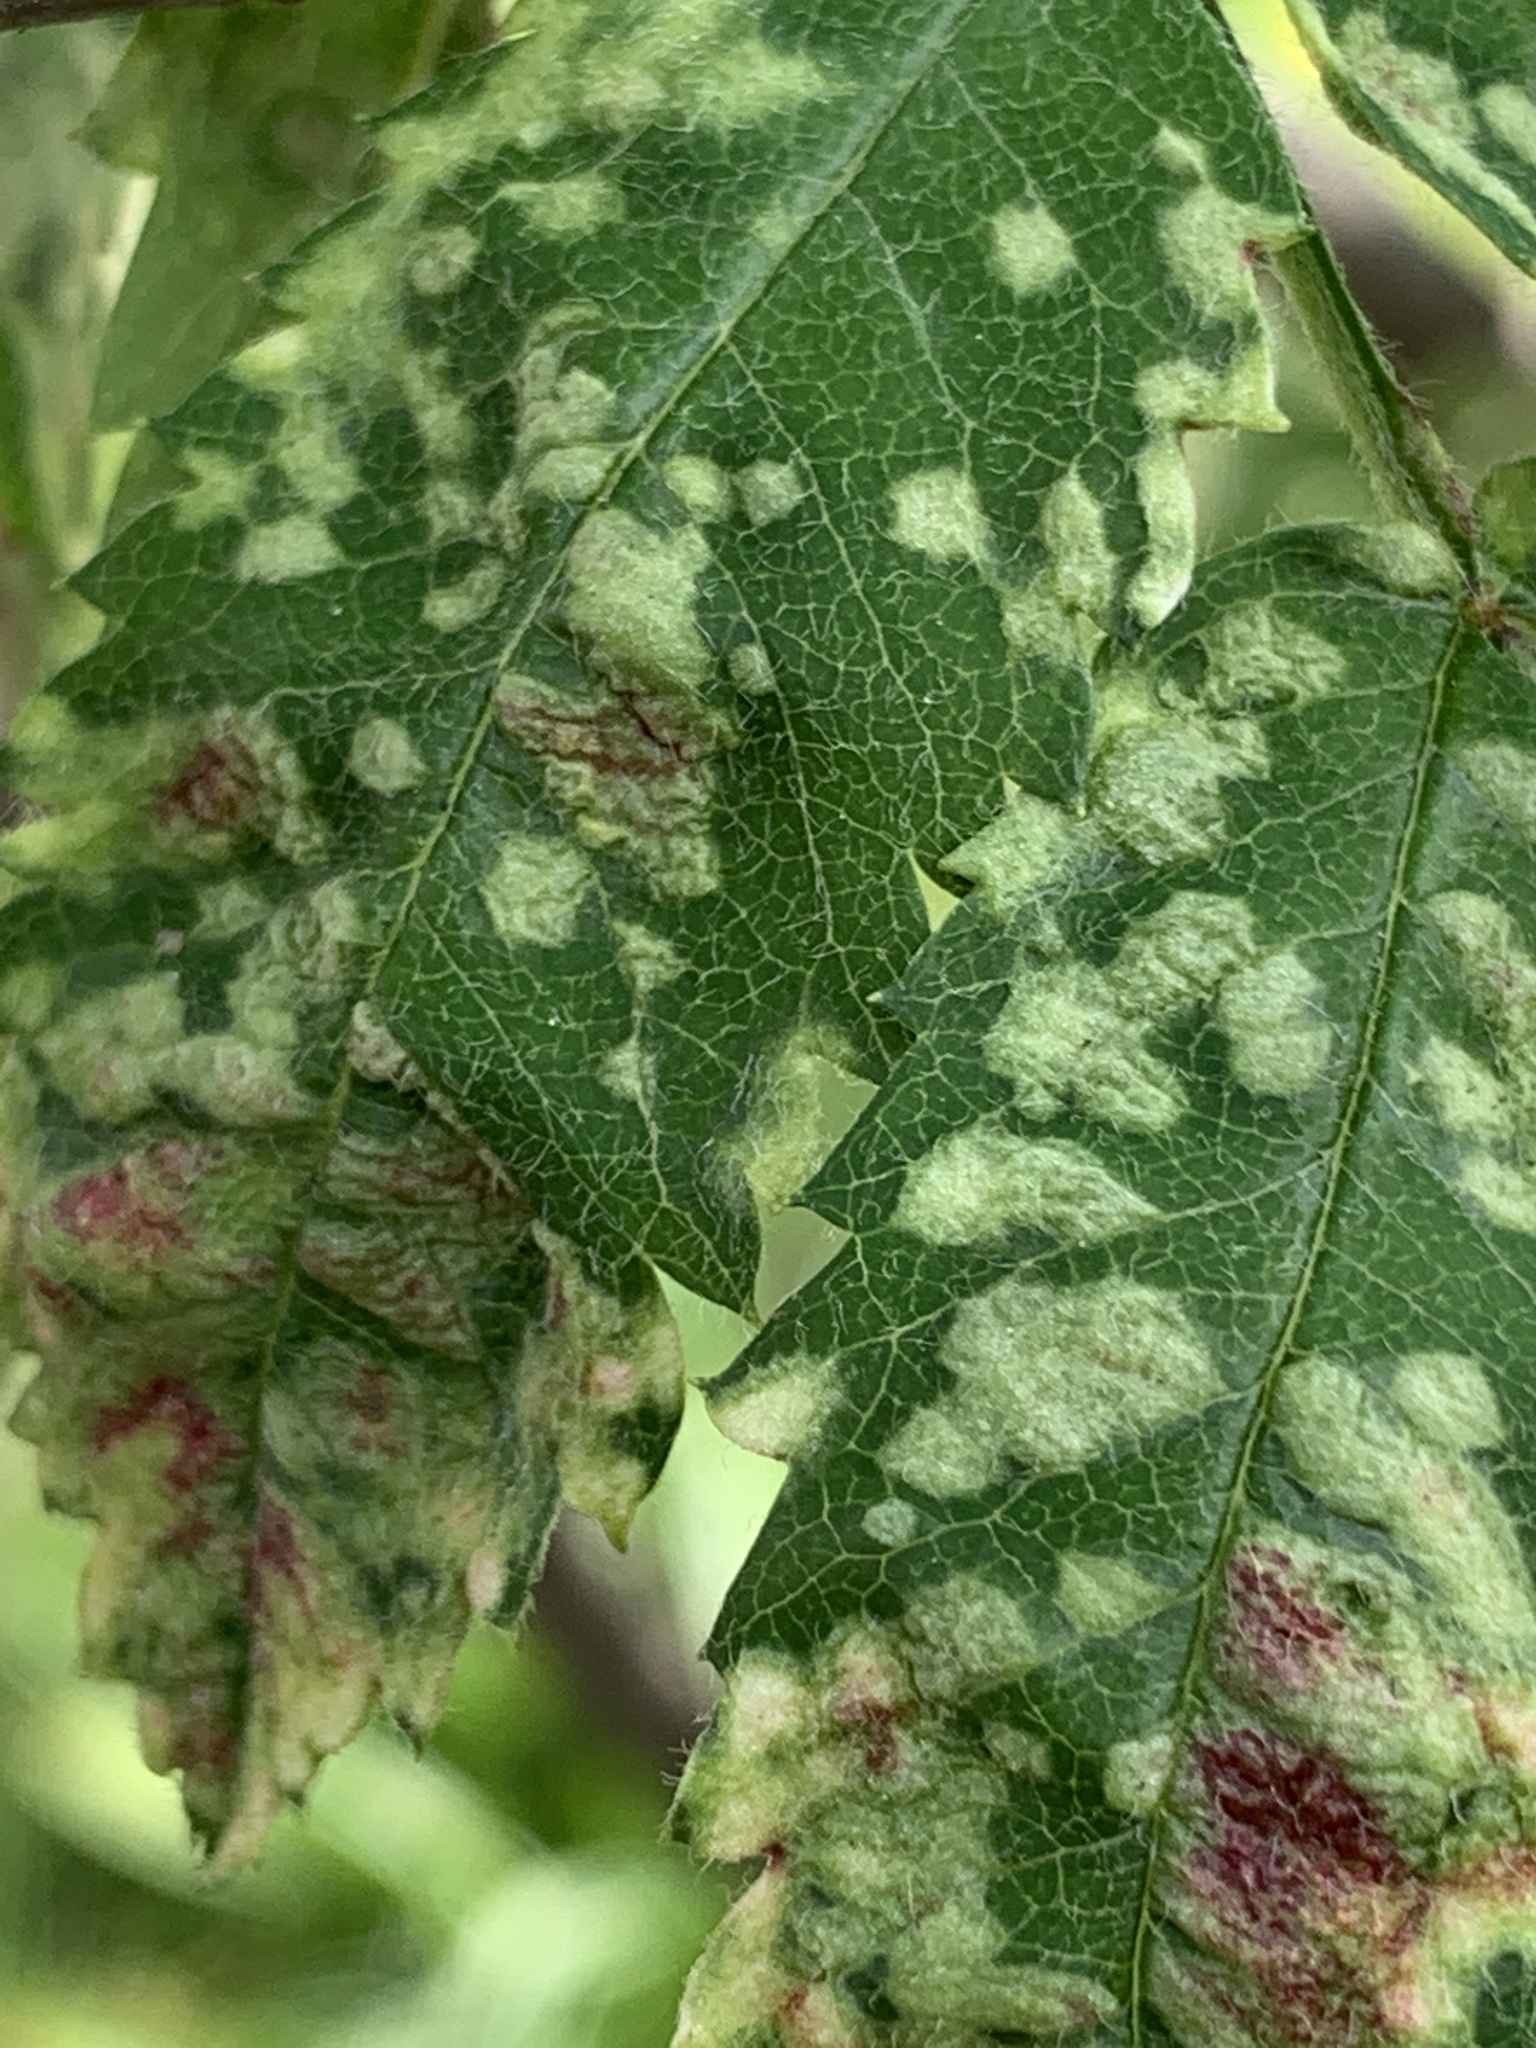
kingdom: Animalia
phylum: Arthropoda
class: Arachnida
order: Trombidiformes
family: Eriophyidae
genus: Eriophyes
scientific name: Eriophyes pyri
